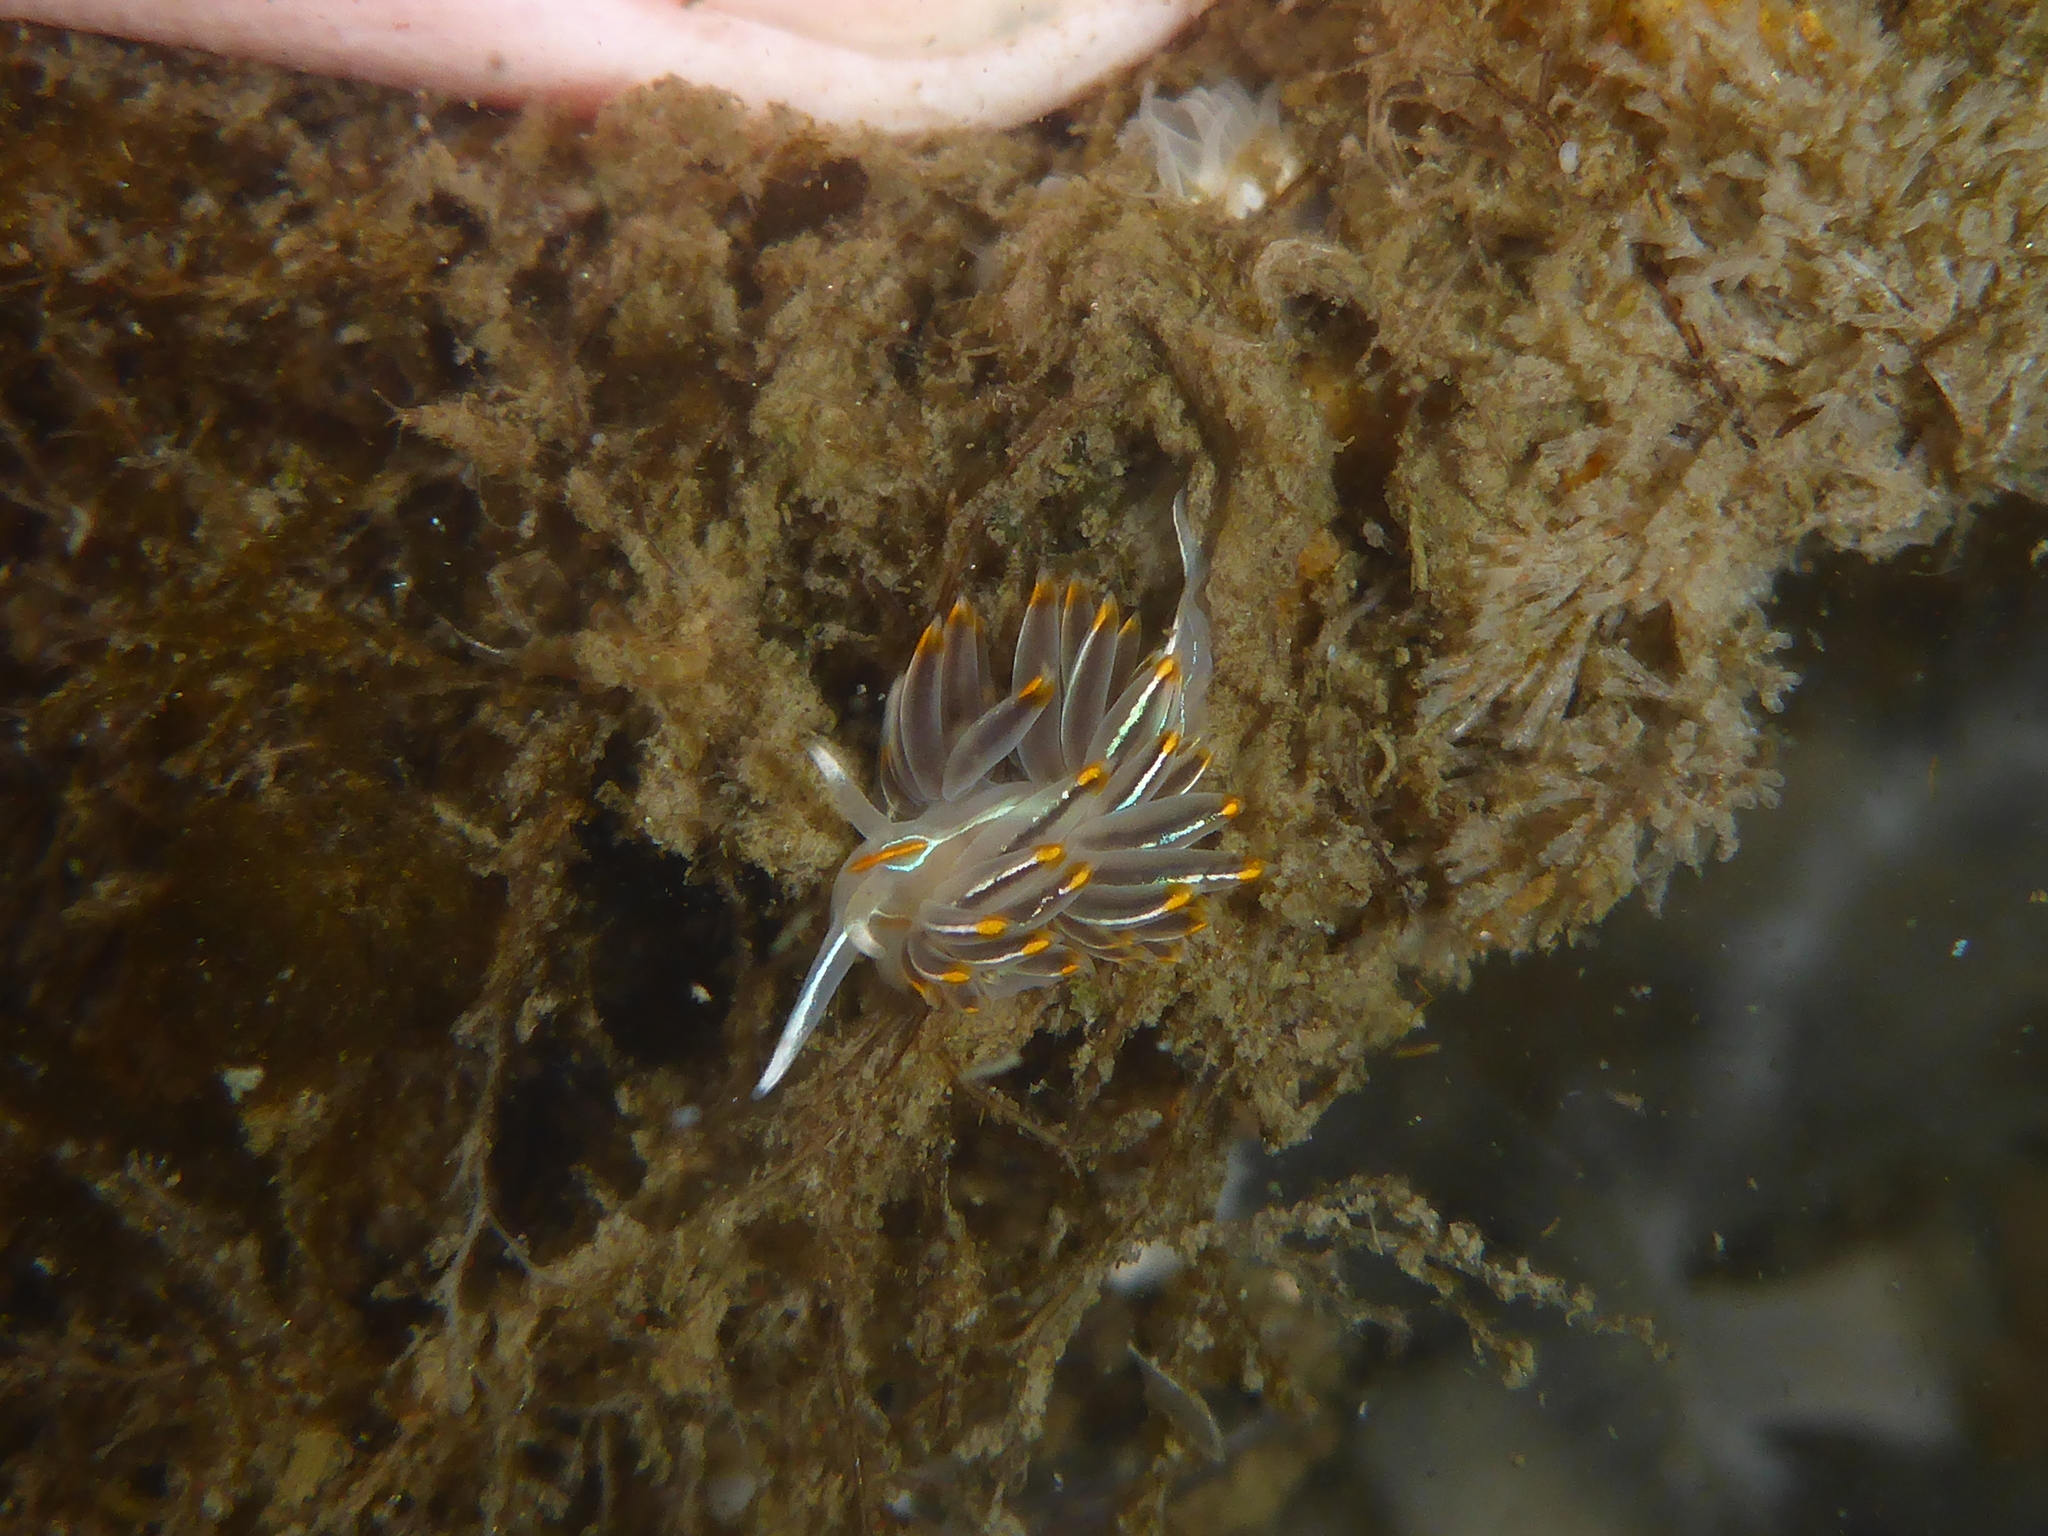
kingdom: Animalia
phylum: Mollusca
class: Gastropoda
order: Nudibranchia
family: Myrrhinidae
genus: Hermissenda
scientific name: Hermissenda crassicornis
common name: Hermissenda
